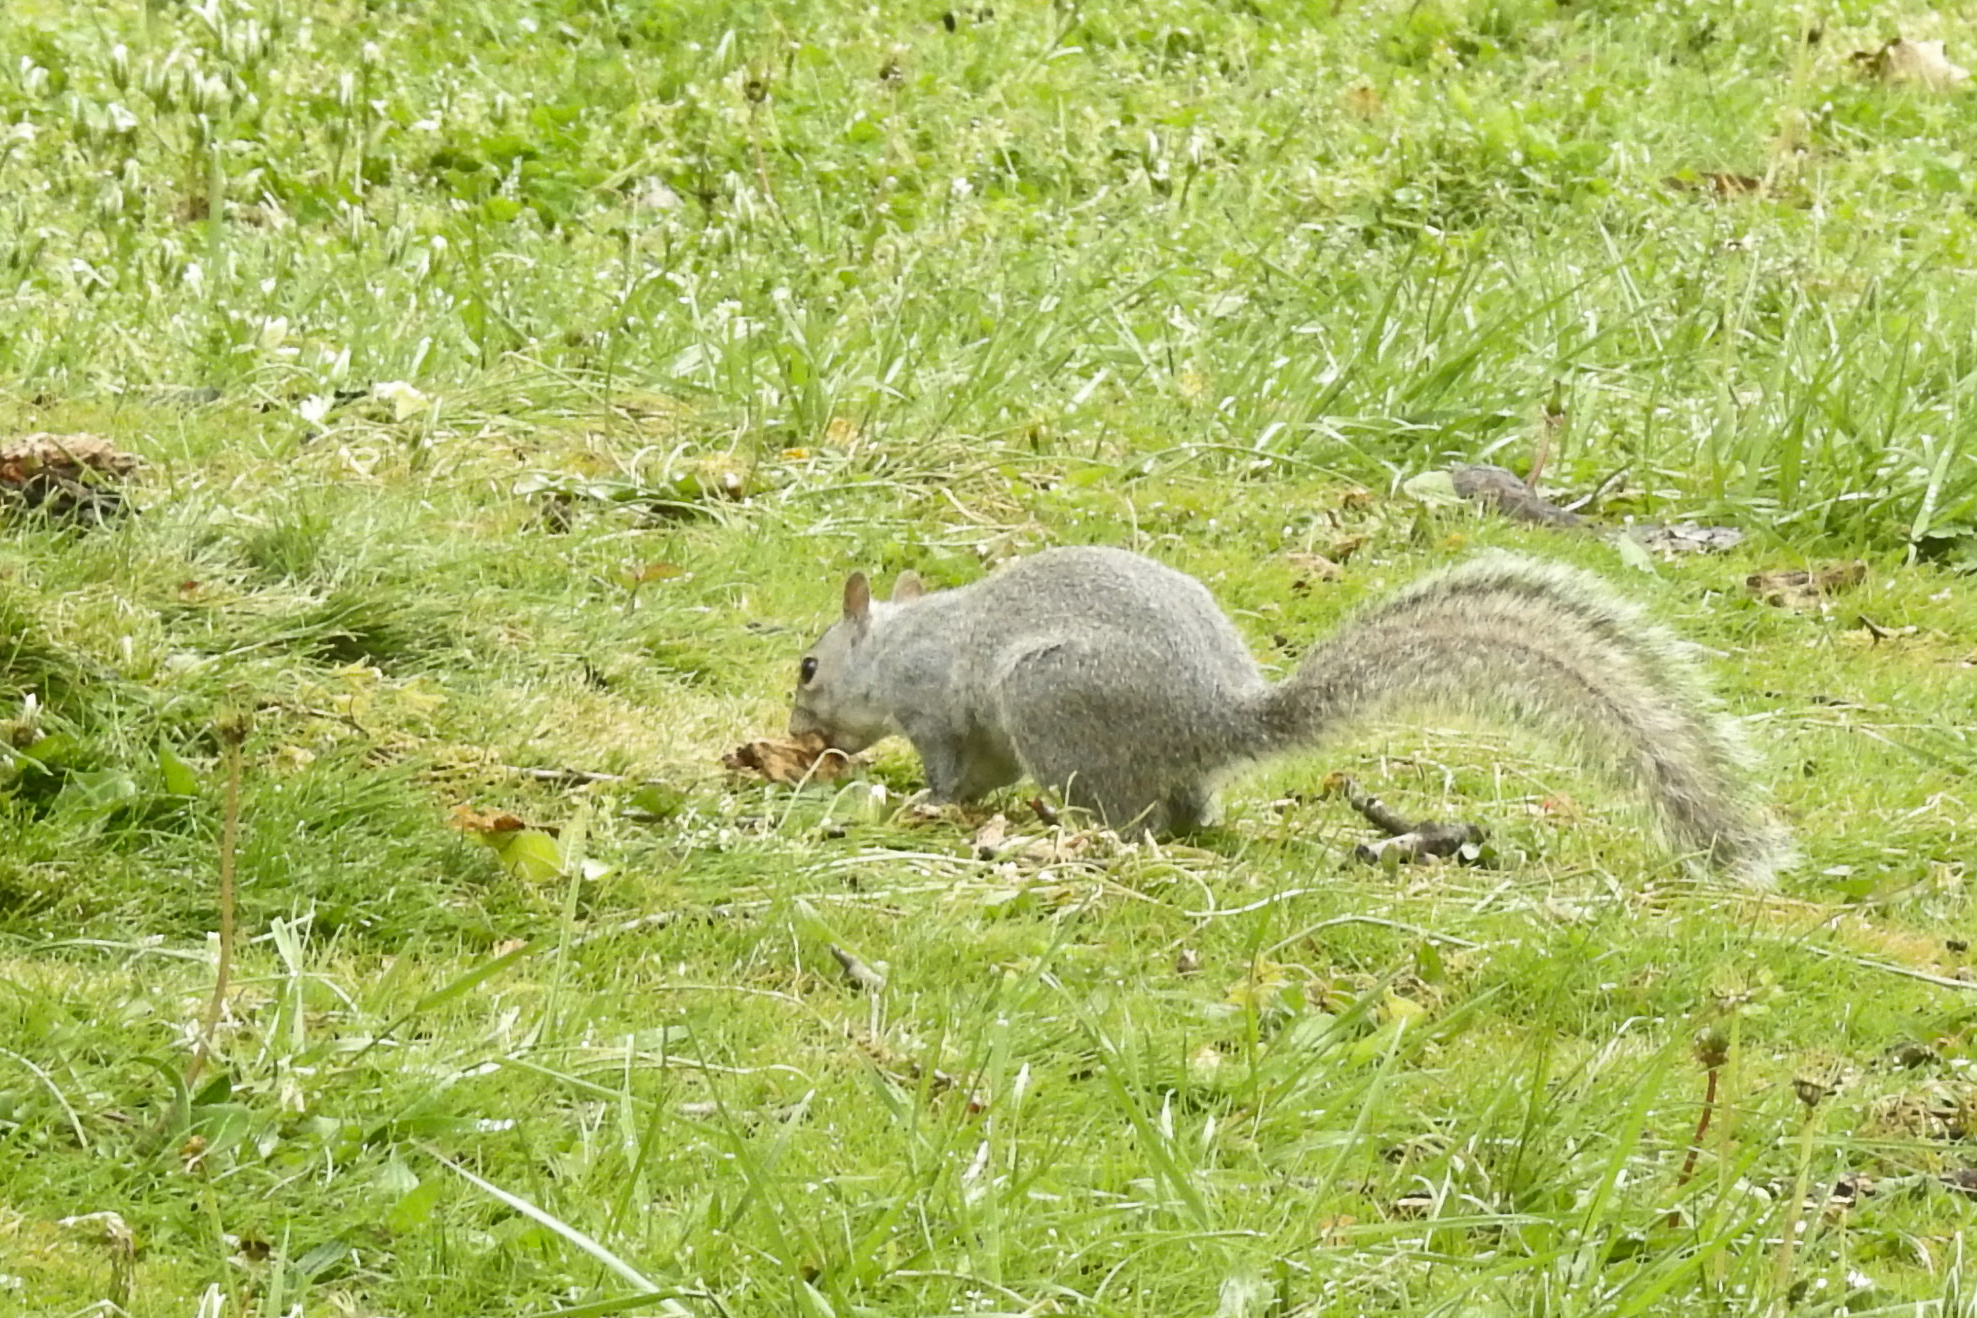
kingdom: Animalia
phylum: Chordata
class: Mammalia
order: Rodentia
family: Sciuridae
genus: Sciurus
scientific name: Sciurus carolinensis
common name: Eastern gray squirrel
